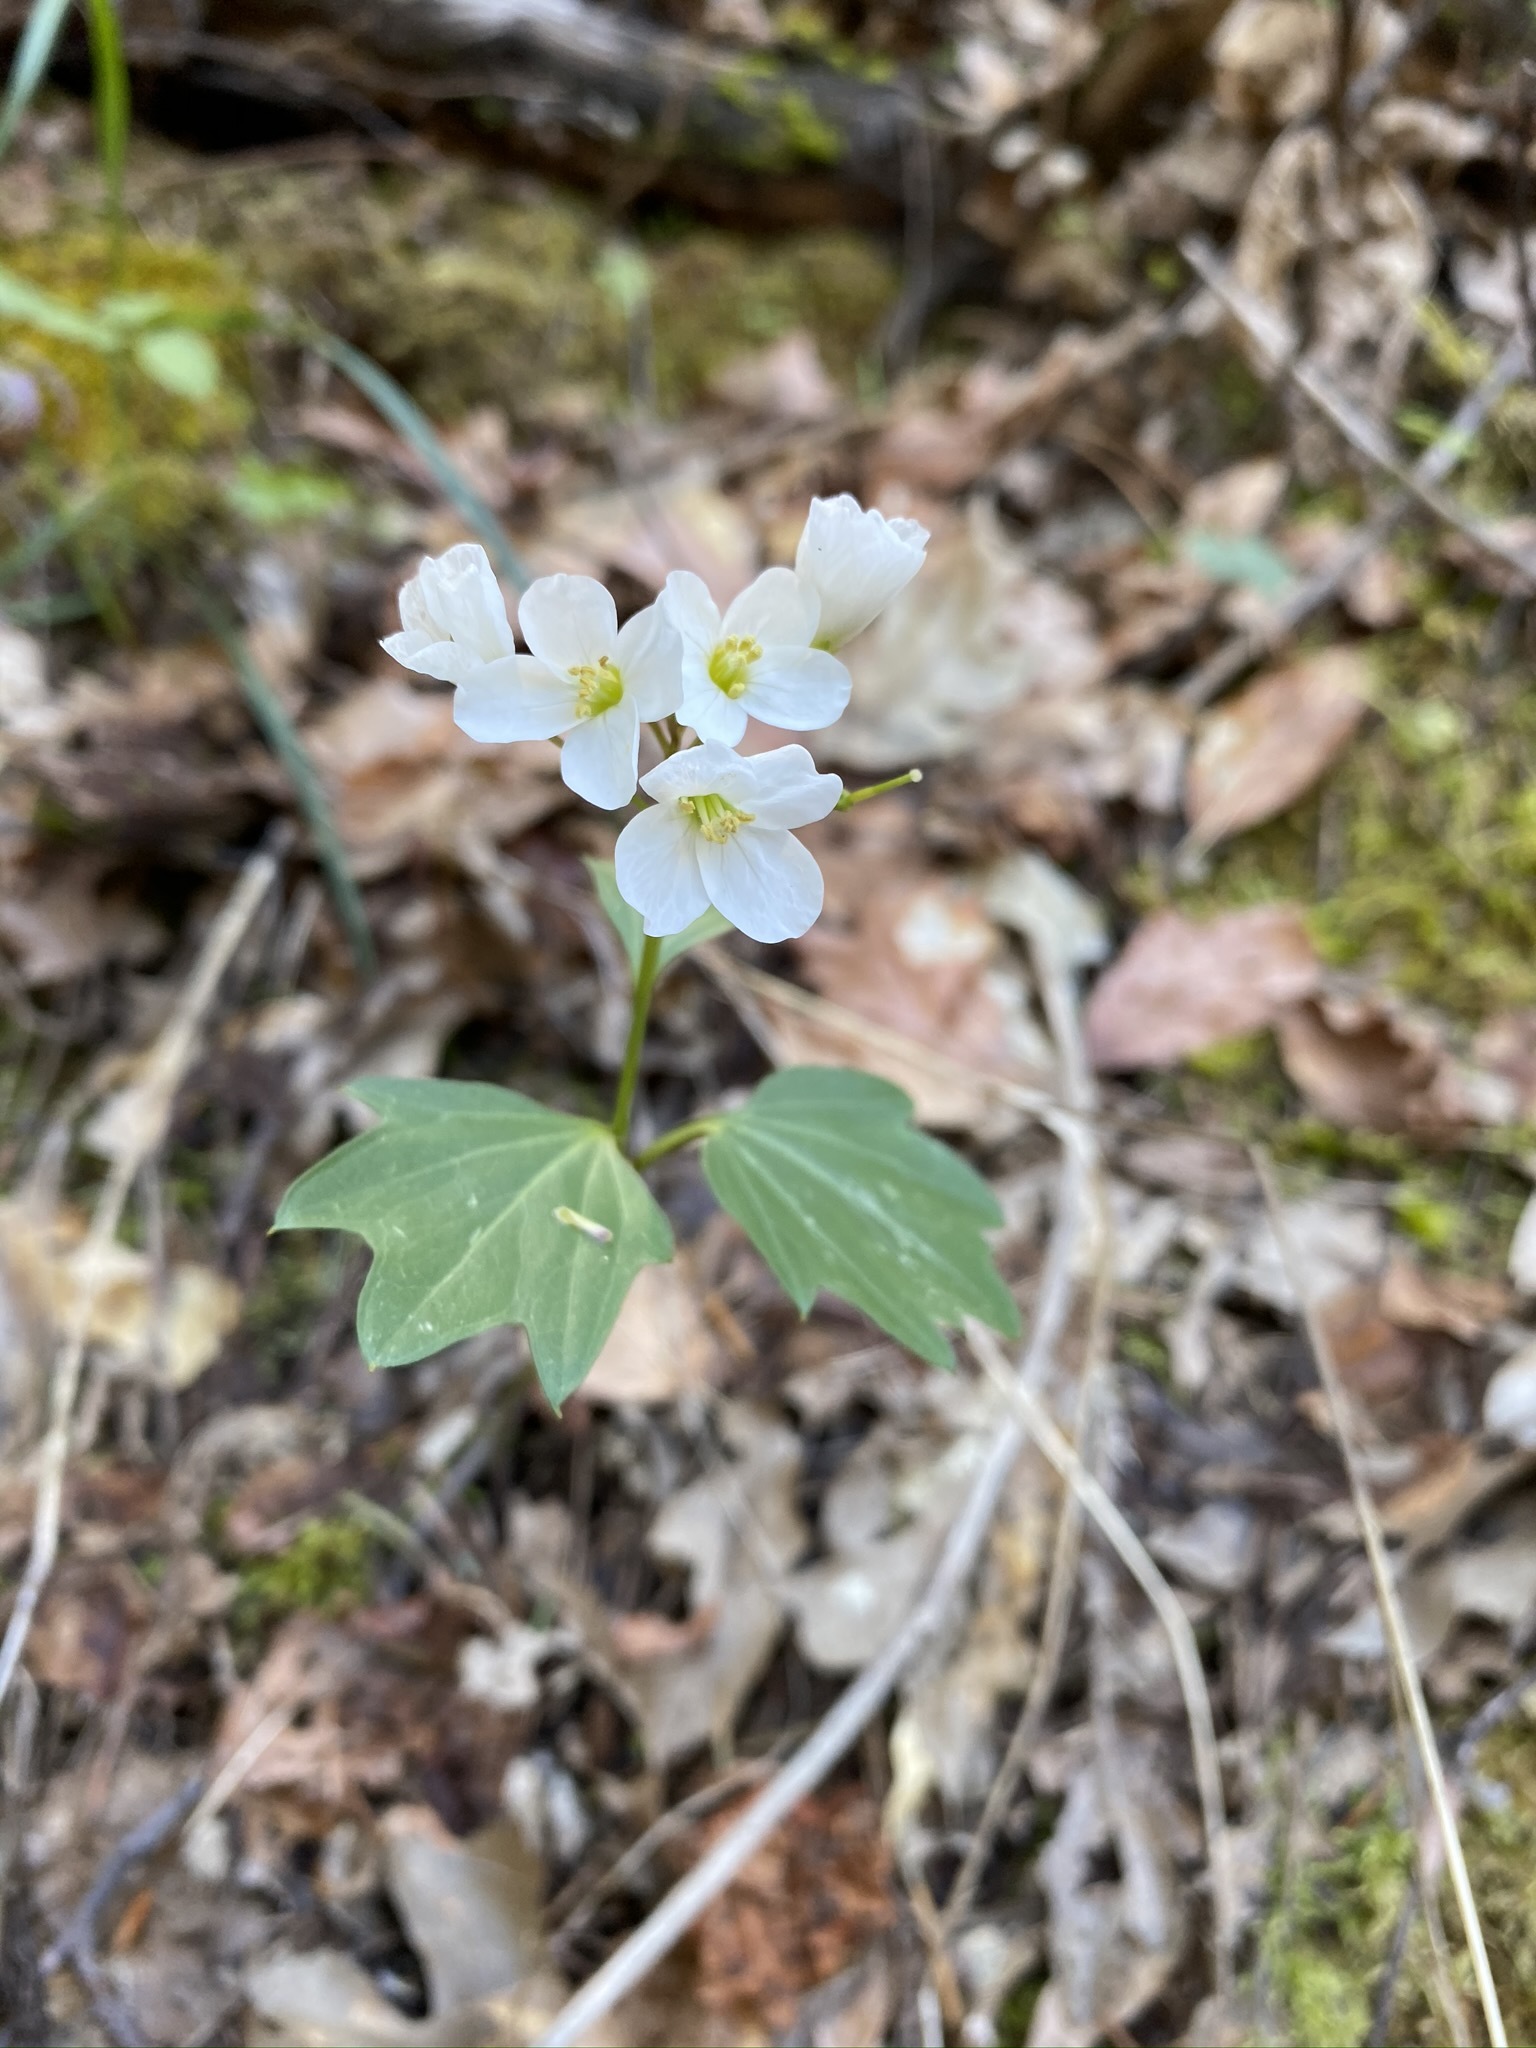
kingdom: Plantae
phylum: Tracheophyta
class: Magnoliopsida
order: Brassicales
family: Brassicaceae
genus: Cardamine
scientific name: Cardamine californica
